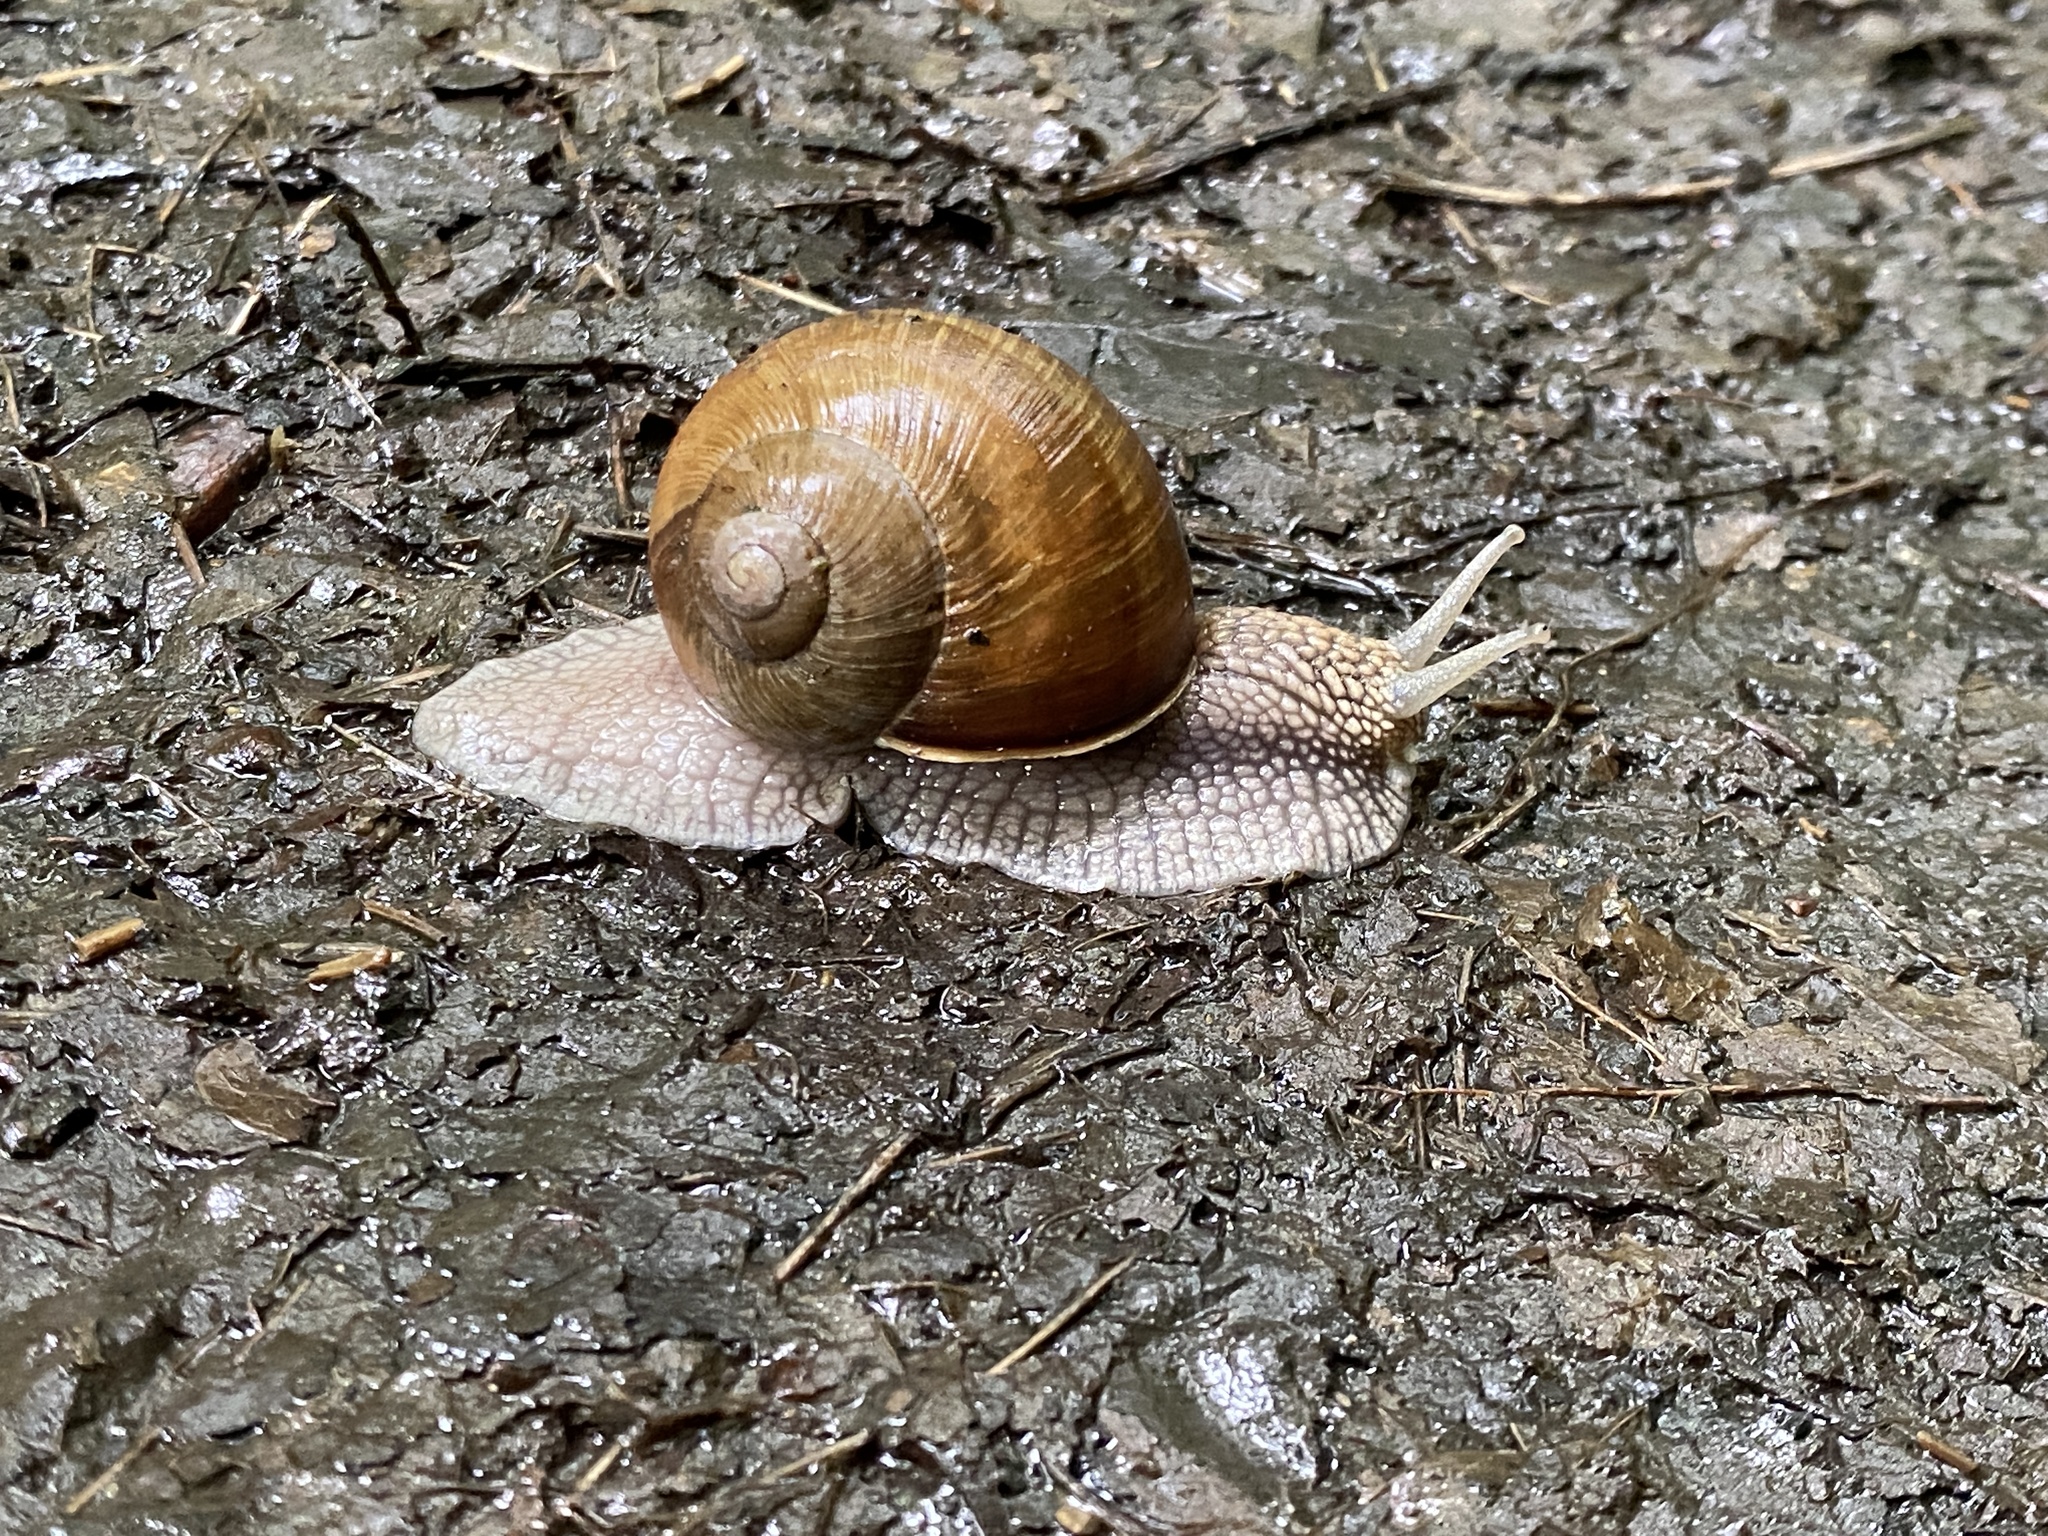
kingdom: Animalia
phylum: Mollusca
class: Gastropoda
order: Stylommatophora
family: Helicidae
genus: Helix
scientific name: Helix pomatia
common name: Roman snail
